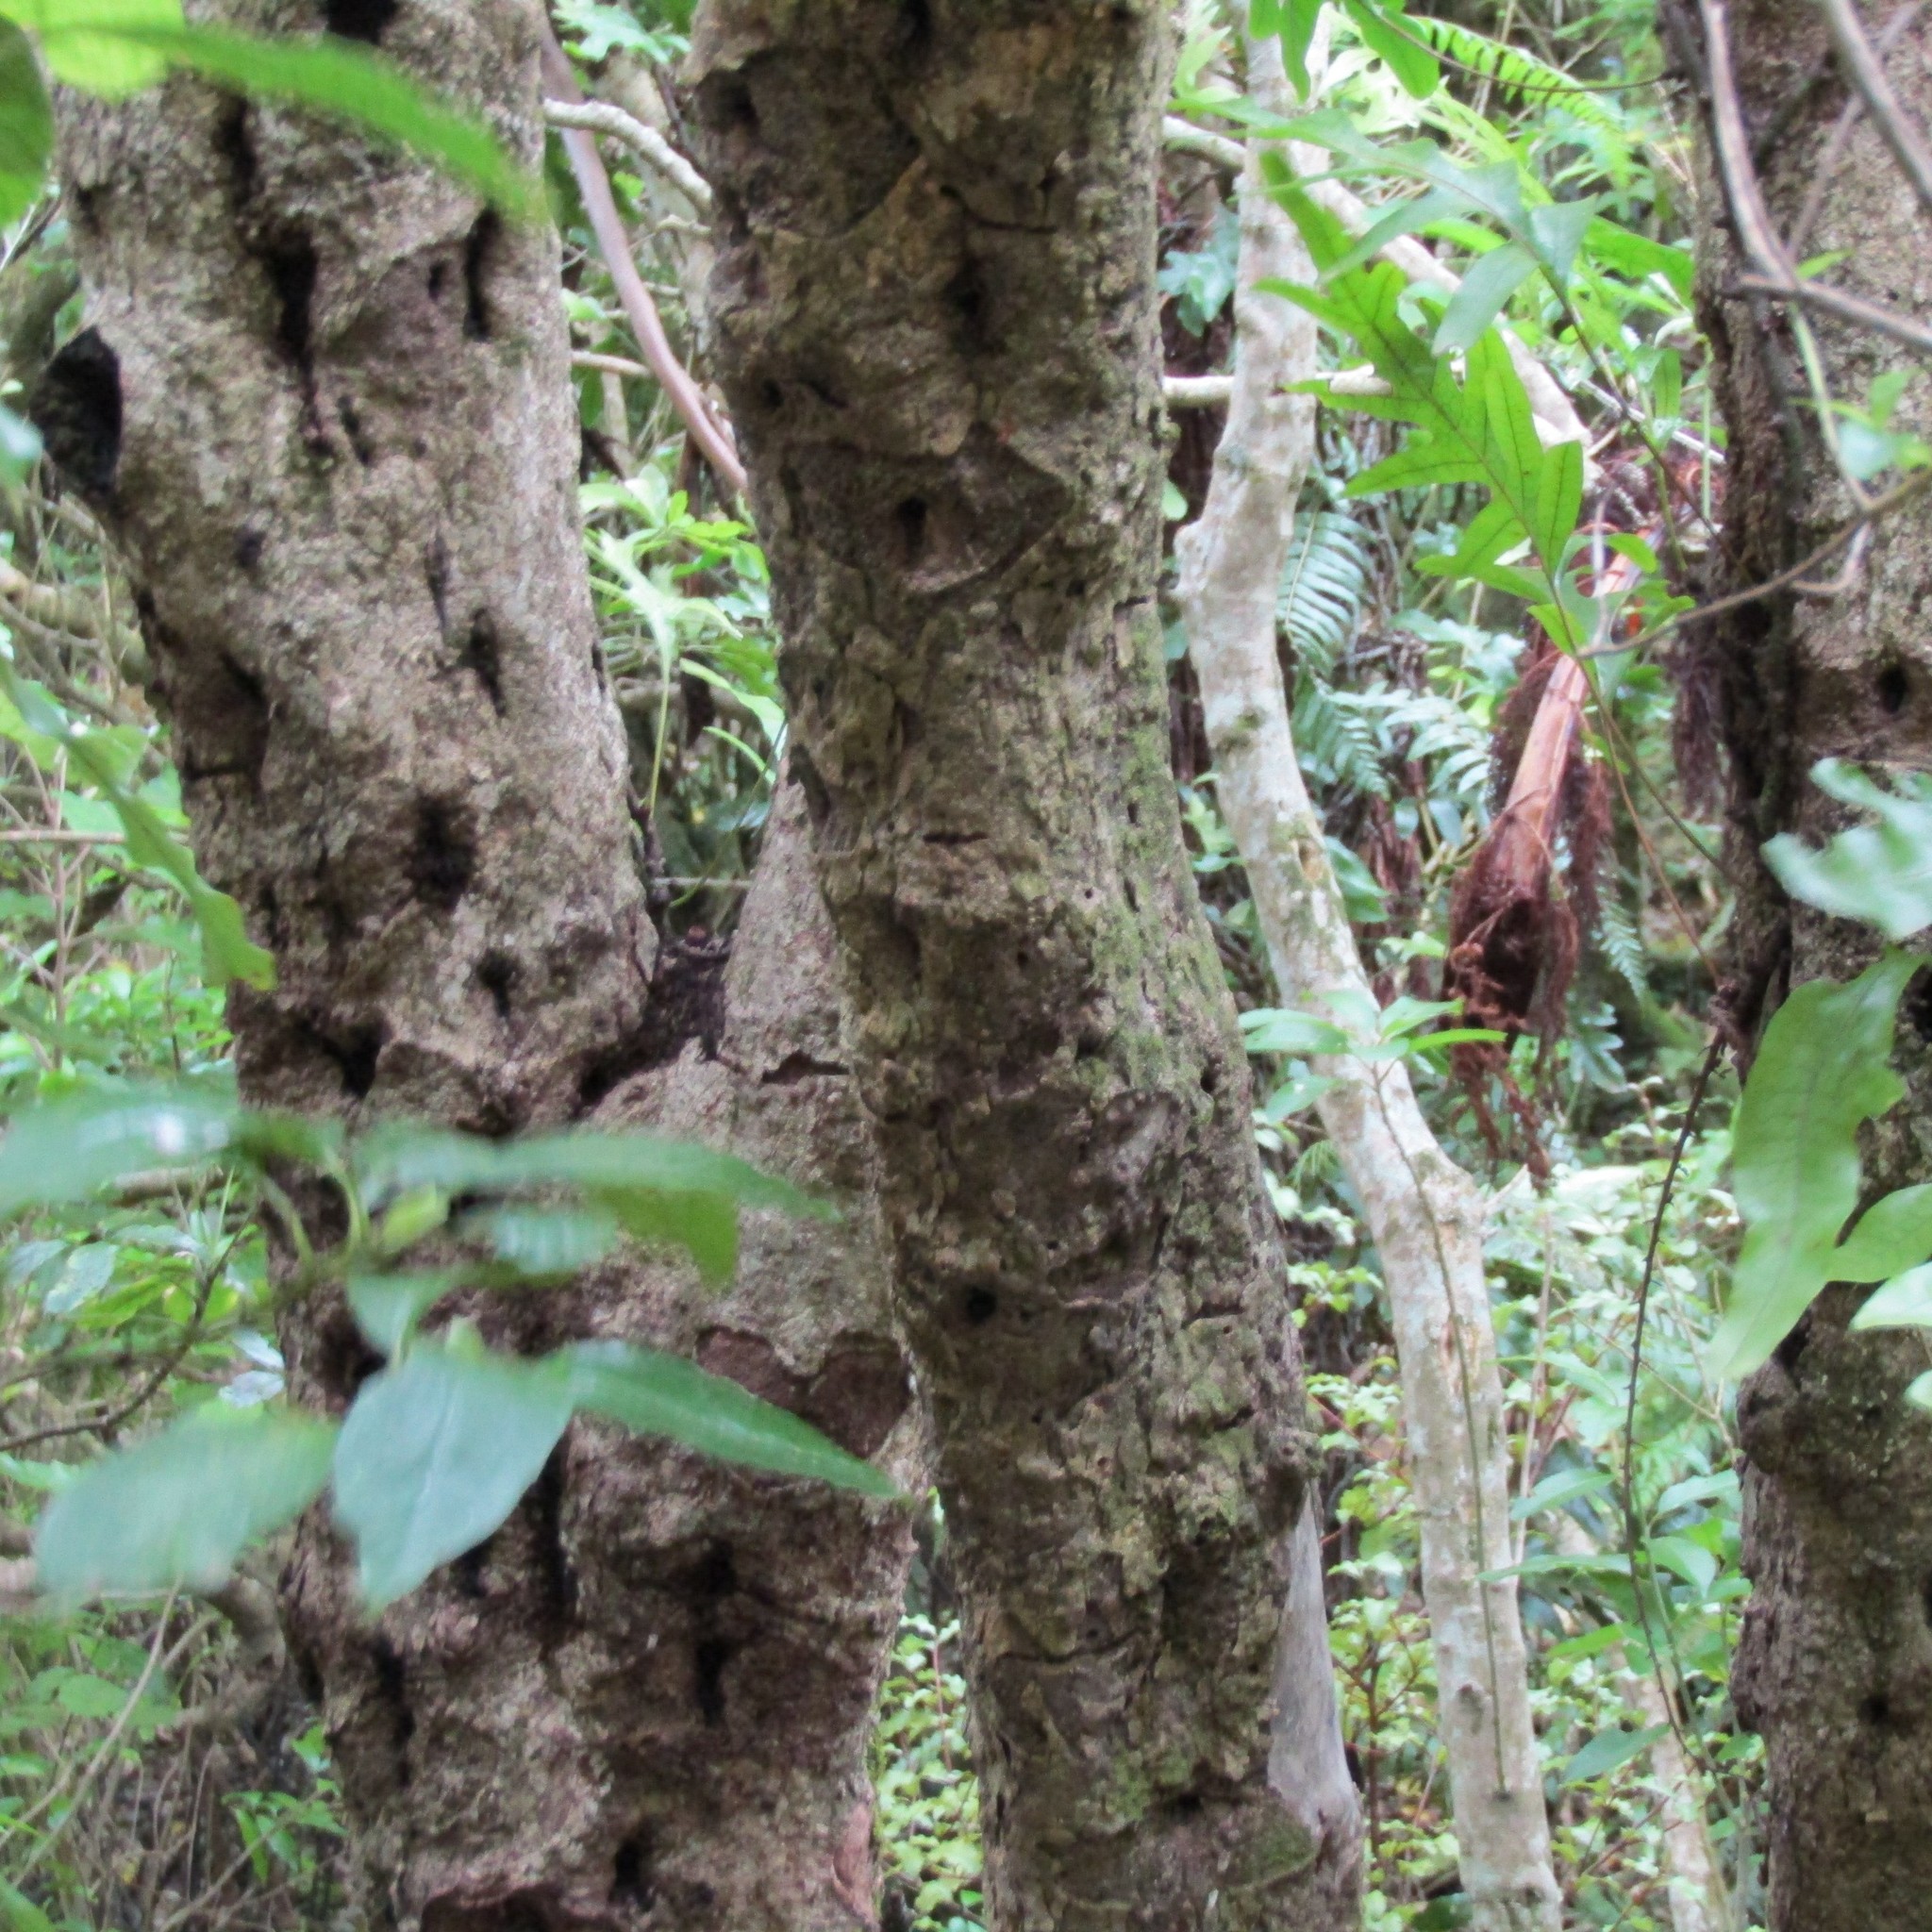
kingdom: Animalia
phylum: Arthropoda
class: Insecta
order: Lepidoptera
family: Hepialidae
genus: Aenetus
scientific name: Aenetus virescens
